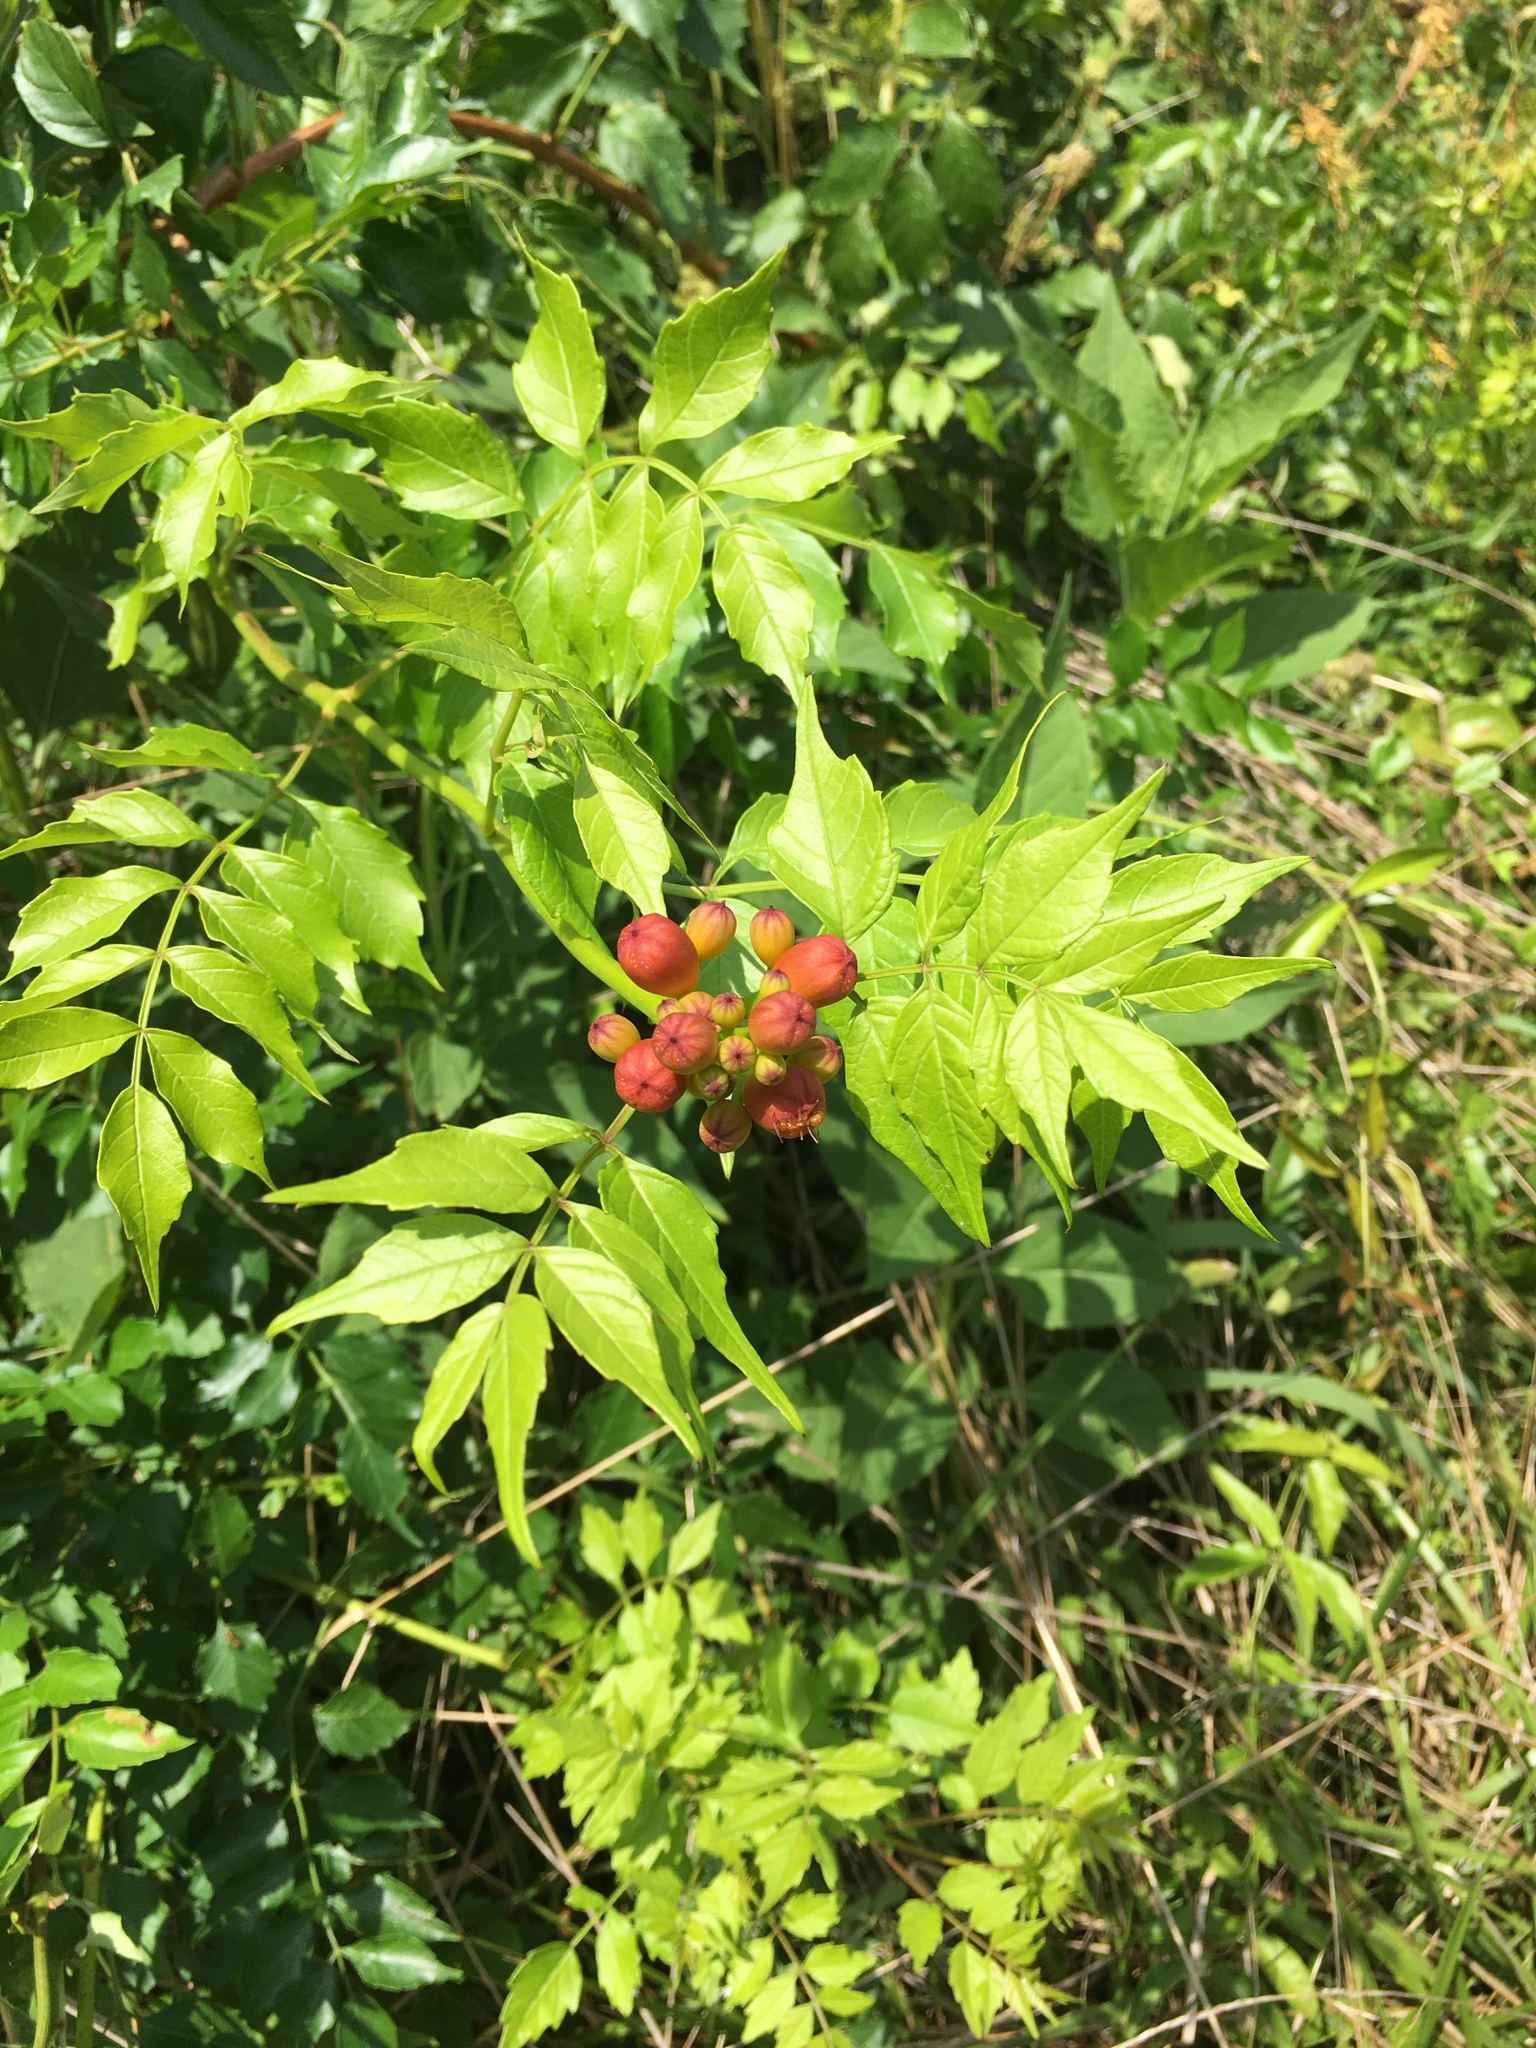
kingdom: Plantae
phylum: Tracheophyta
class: Magnoliopsida
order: Lamiales
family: Bignoniaceae
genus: Campsis
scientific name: Campsis radicans
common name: Trumpet-creeper
